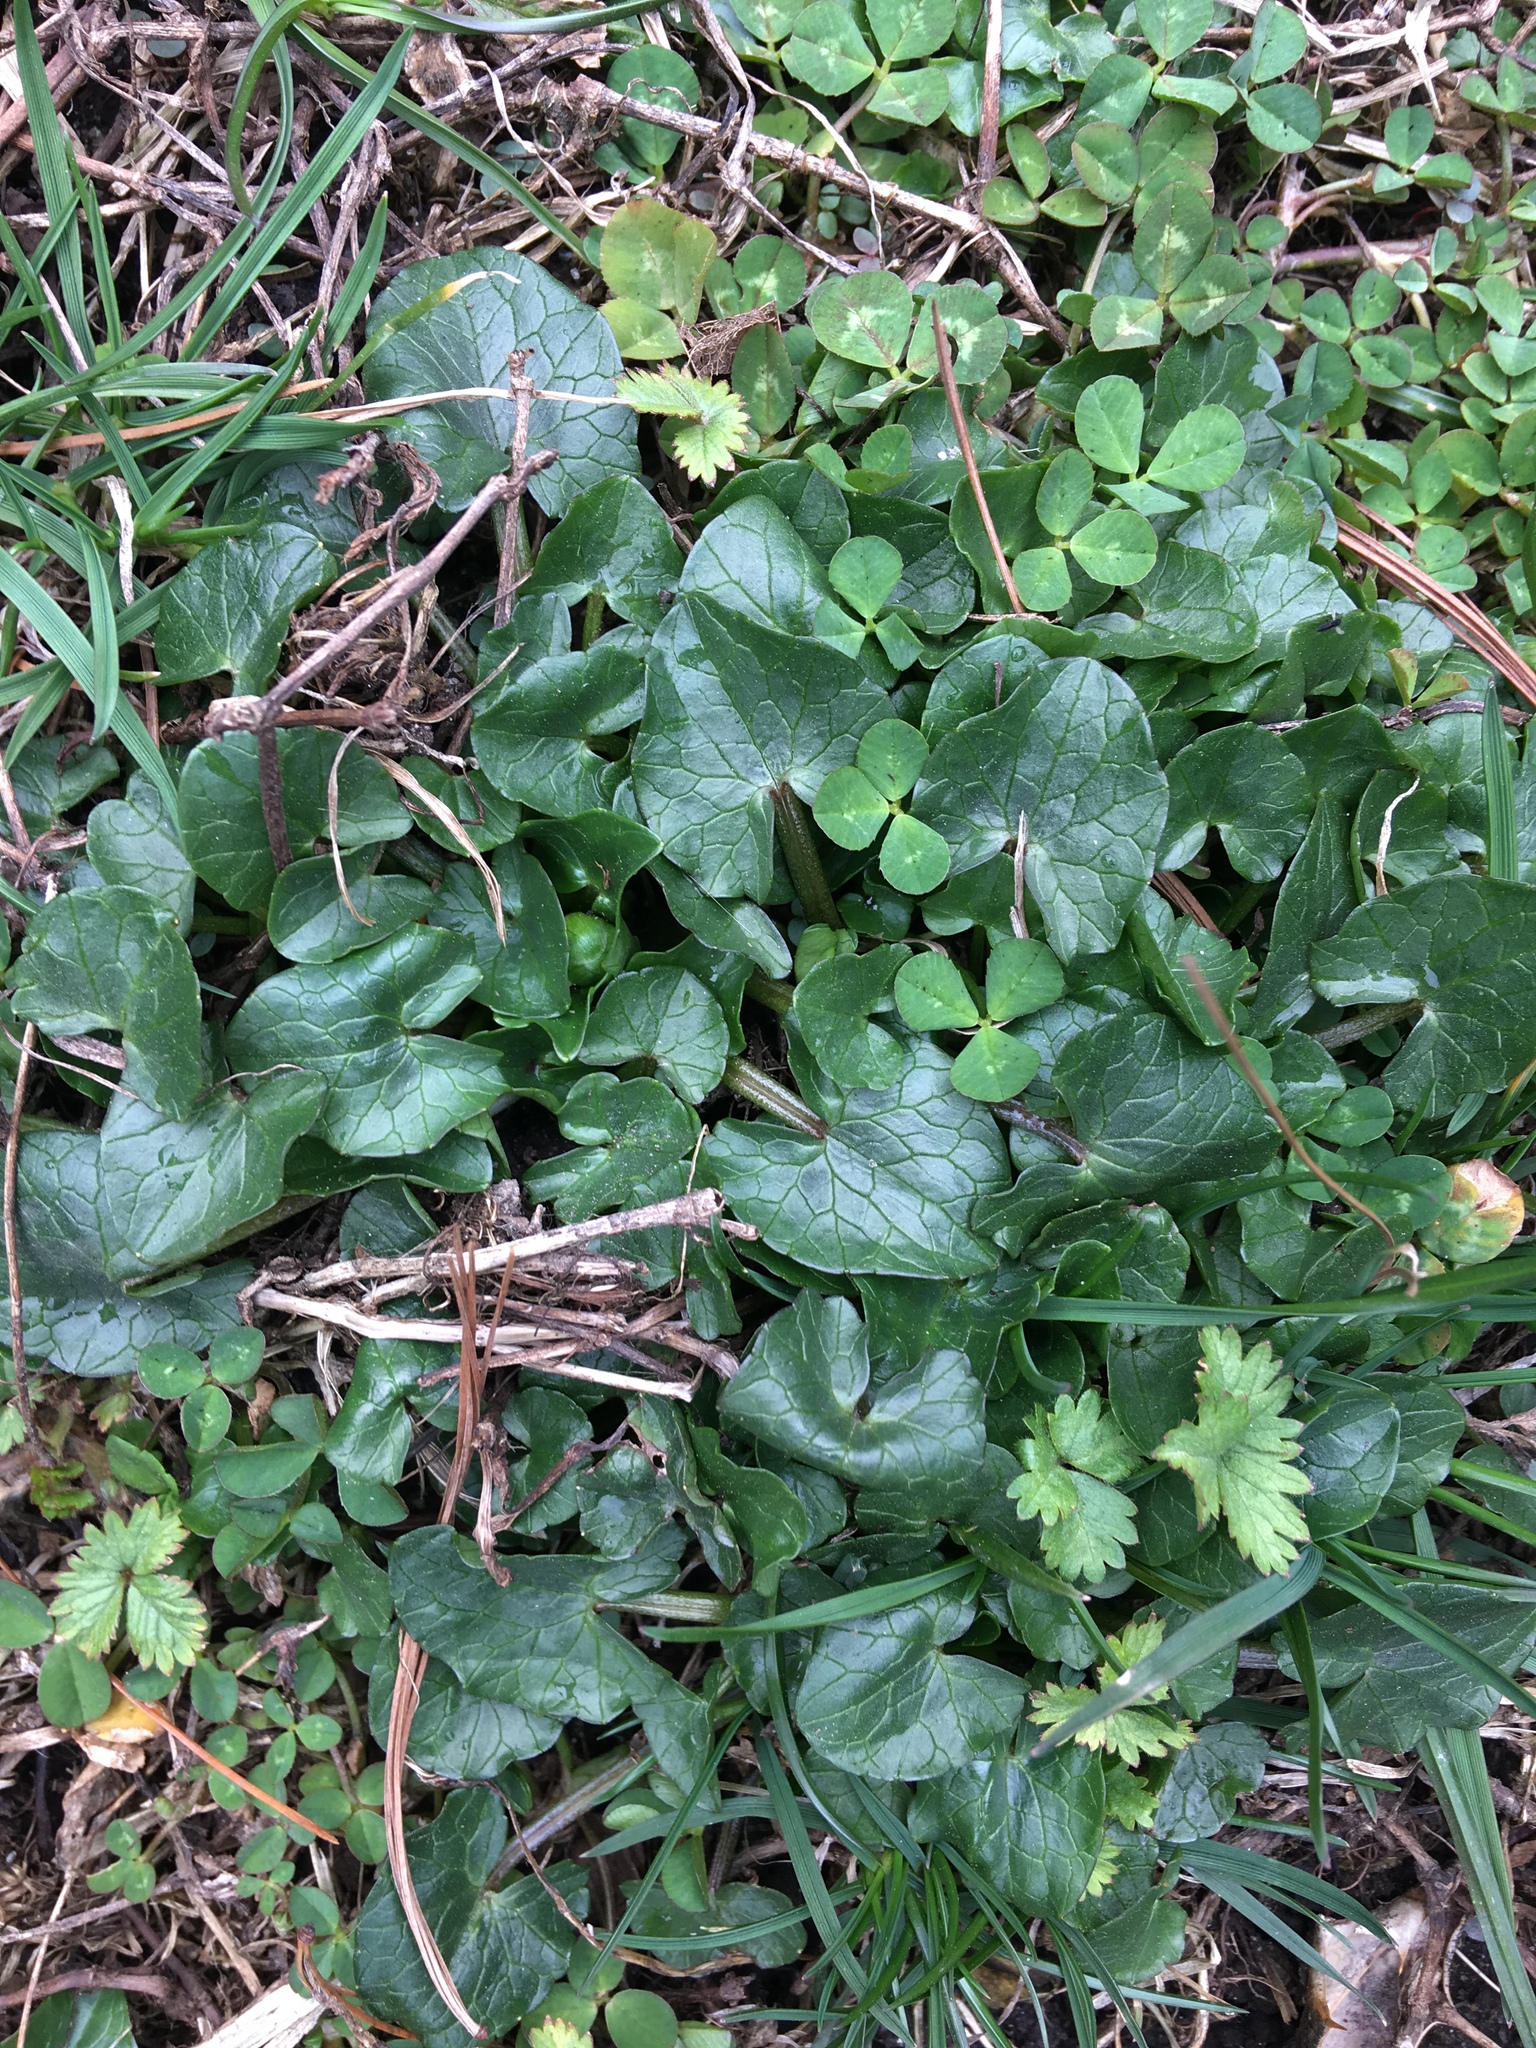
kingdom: Plantae
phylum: Tracheophyta
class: Magnoliopsida
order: Ranunculales
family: Ranunculaceae
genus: Ficaria
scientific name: Ficaria verna
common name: Lesser celandine
